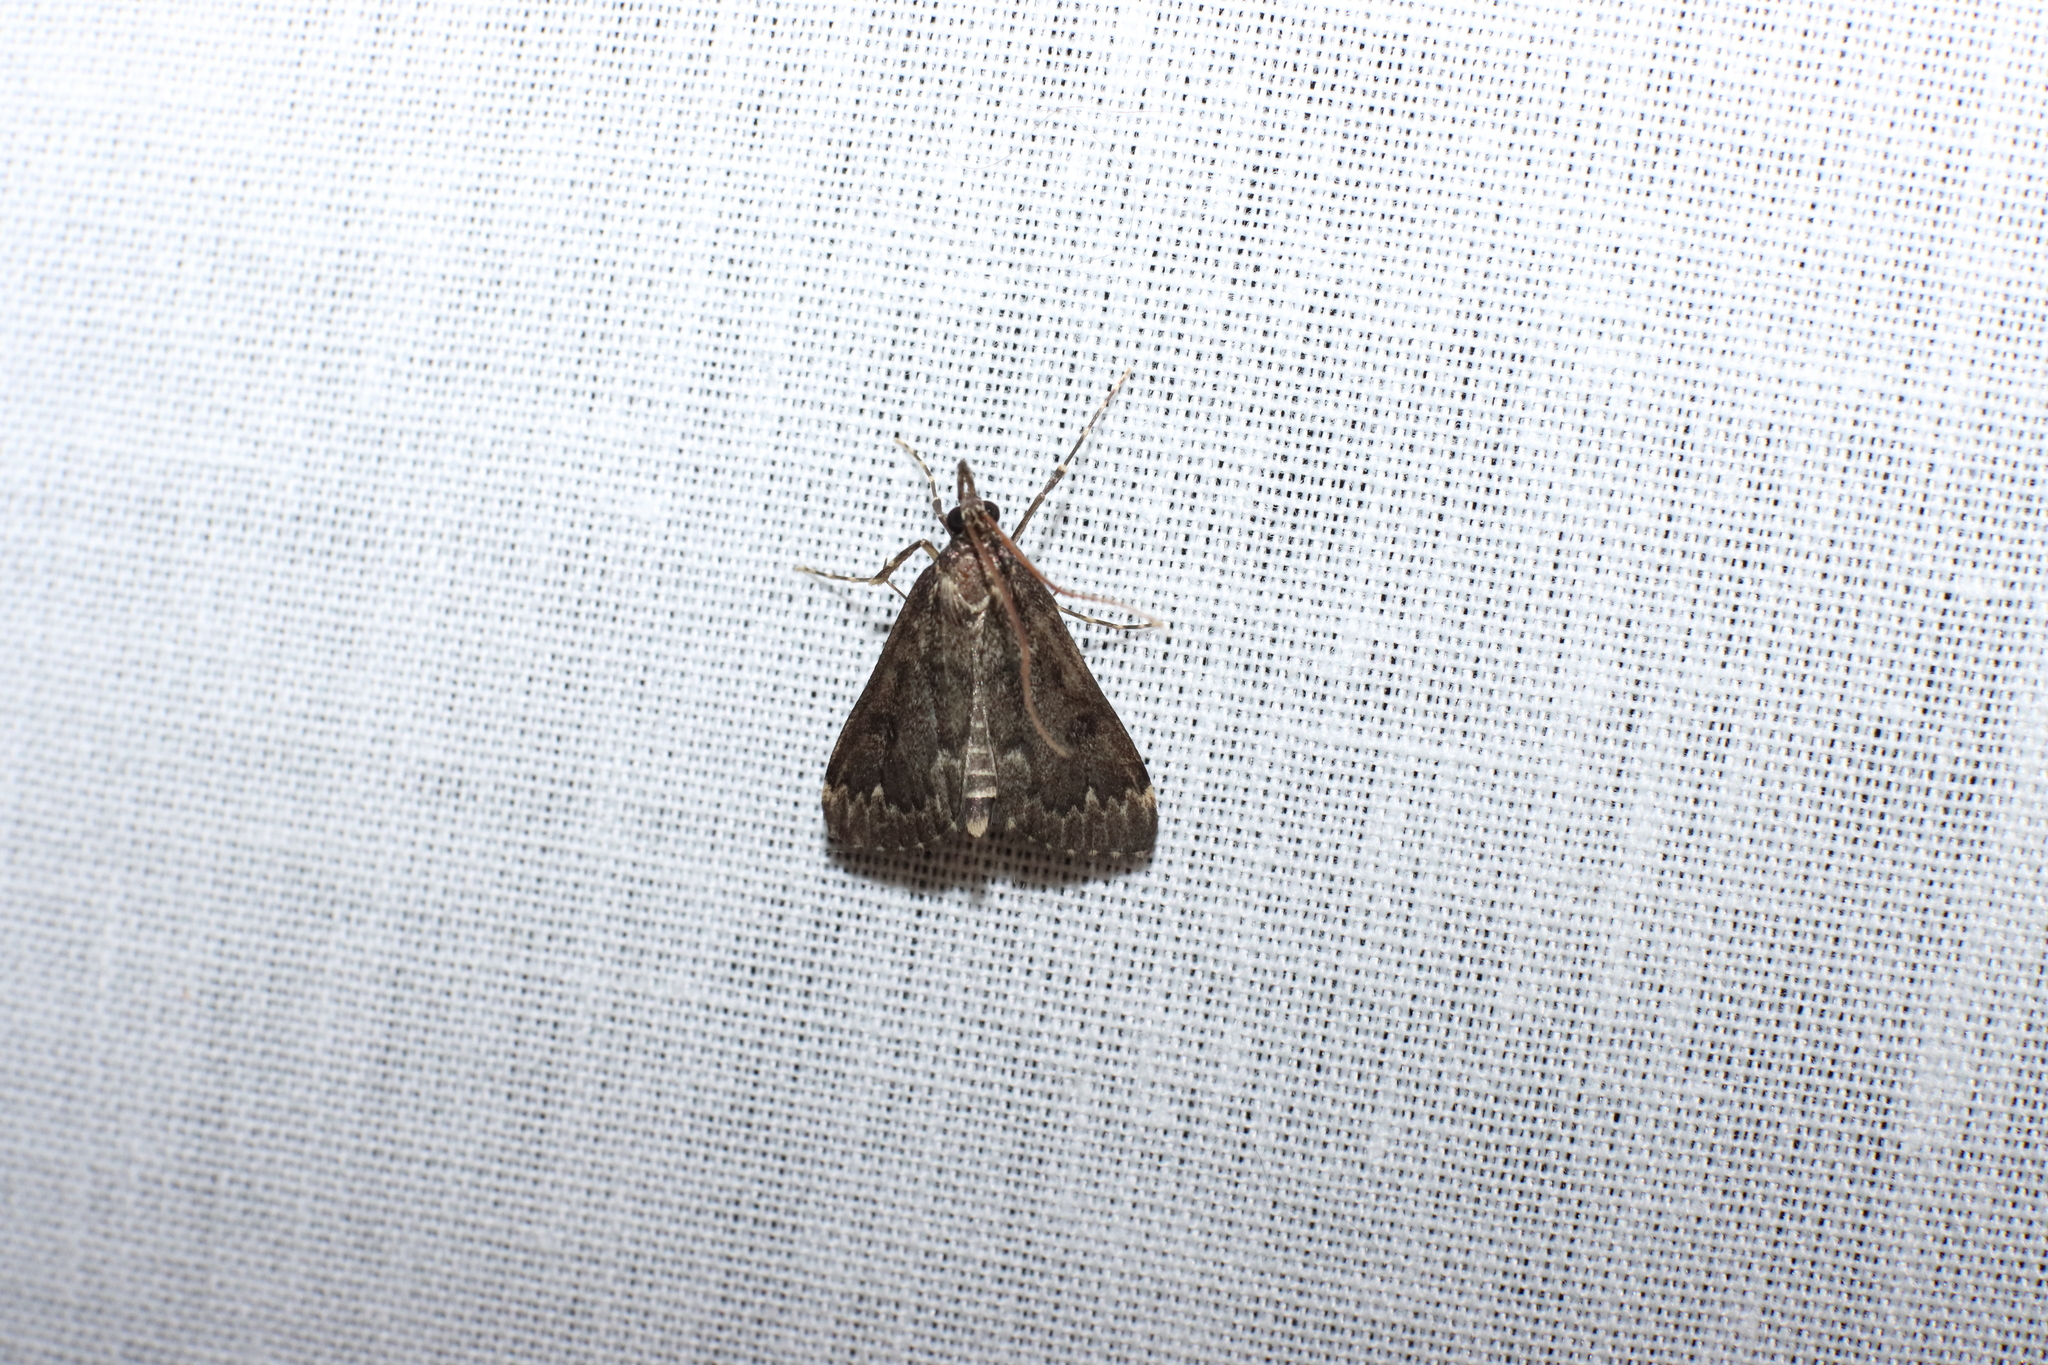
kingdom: Animalia
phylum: Arthropoda
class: Insecta
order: Lepidoptera
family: Crambidae
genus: Loxostege
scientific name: Loxostege Proternia philocapna
